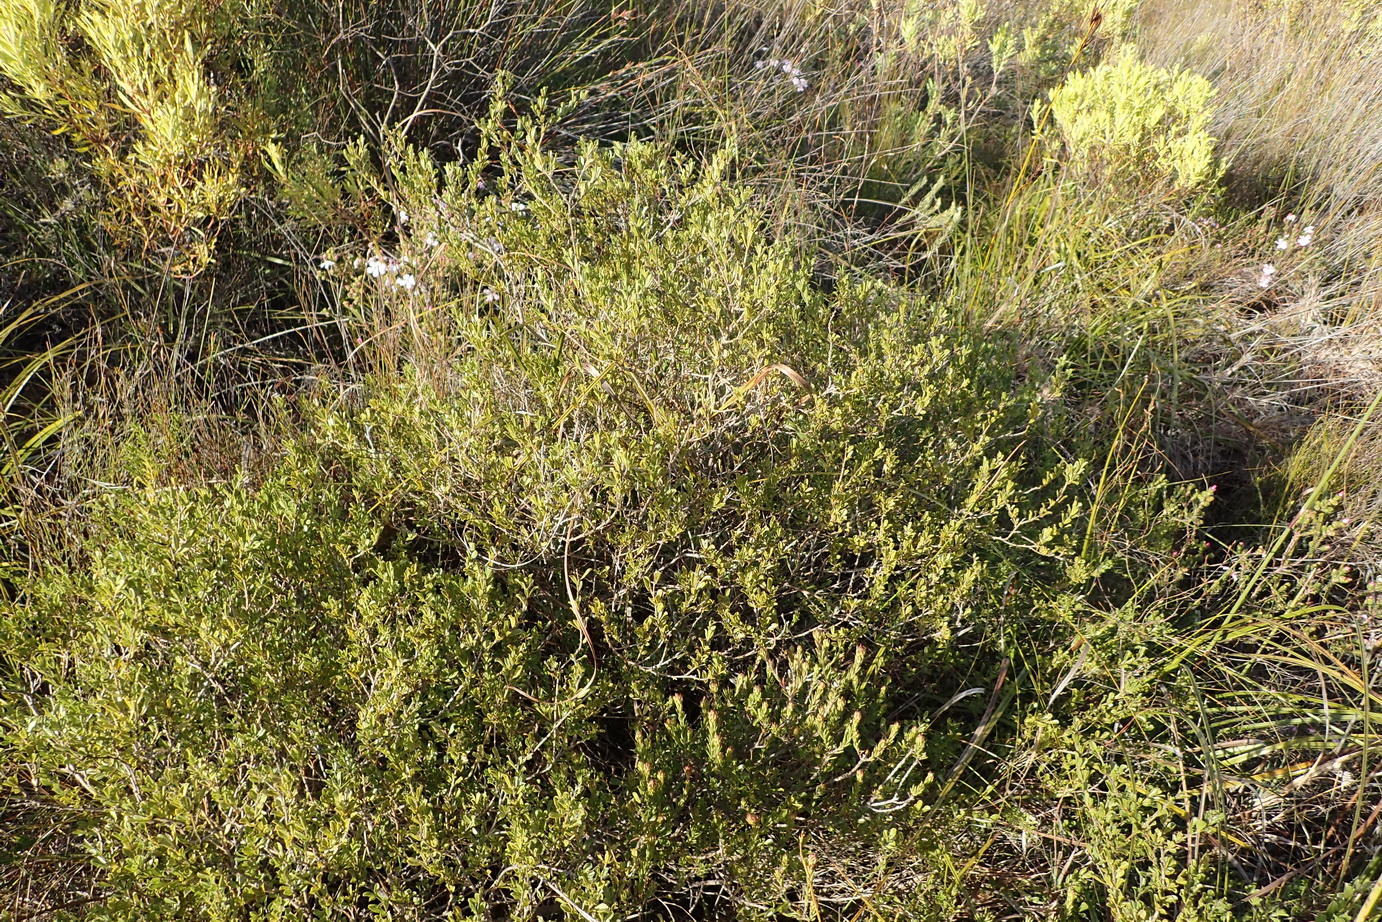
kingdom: Plantae
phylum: Tracheophyta
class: Magnoliopsida
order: Fabales
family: Fabaceae
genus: Psoralea
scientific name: Psoralea heterosepala
